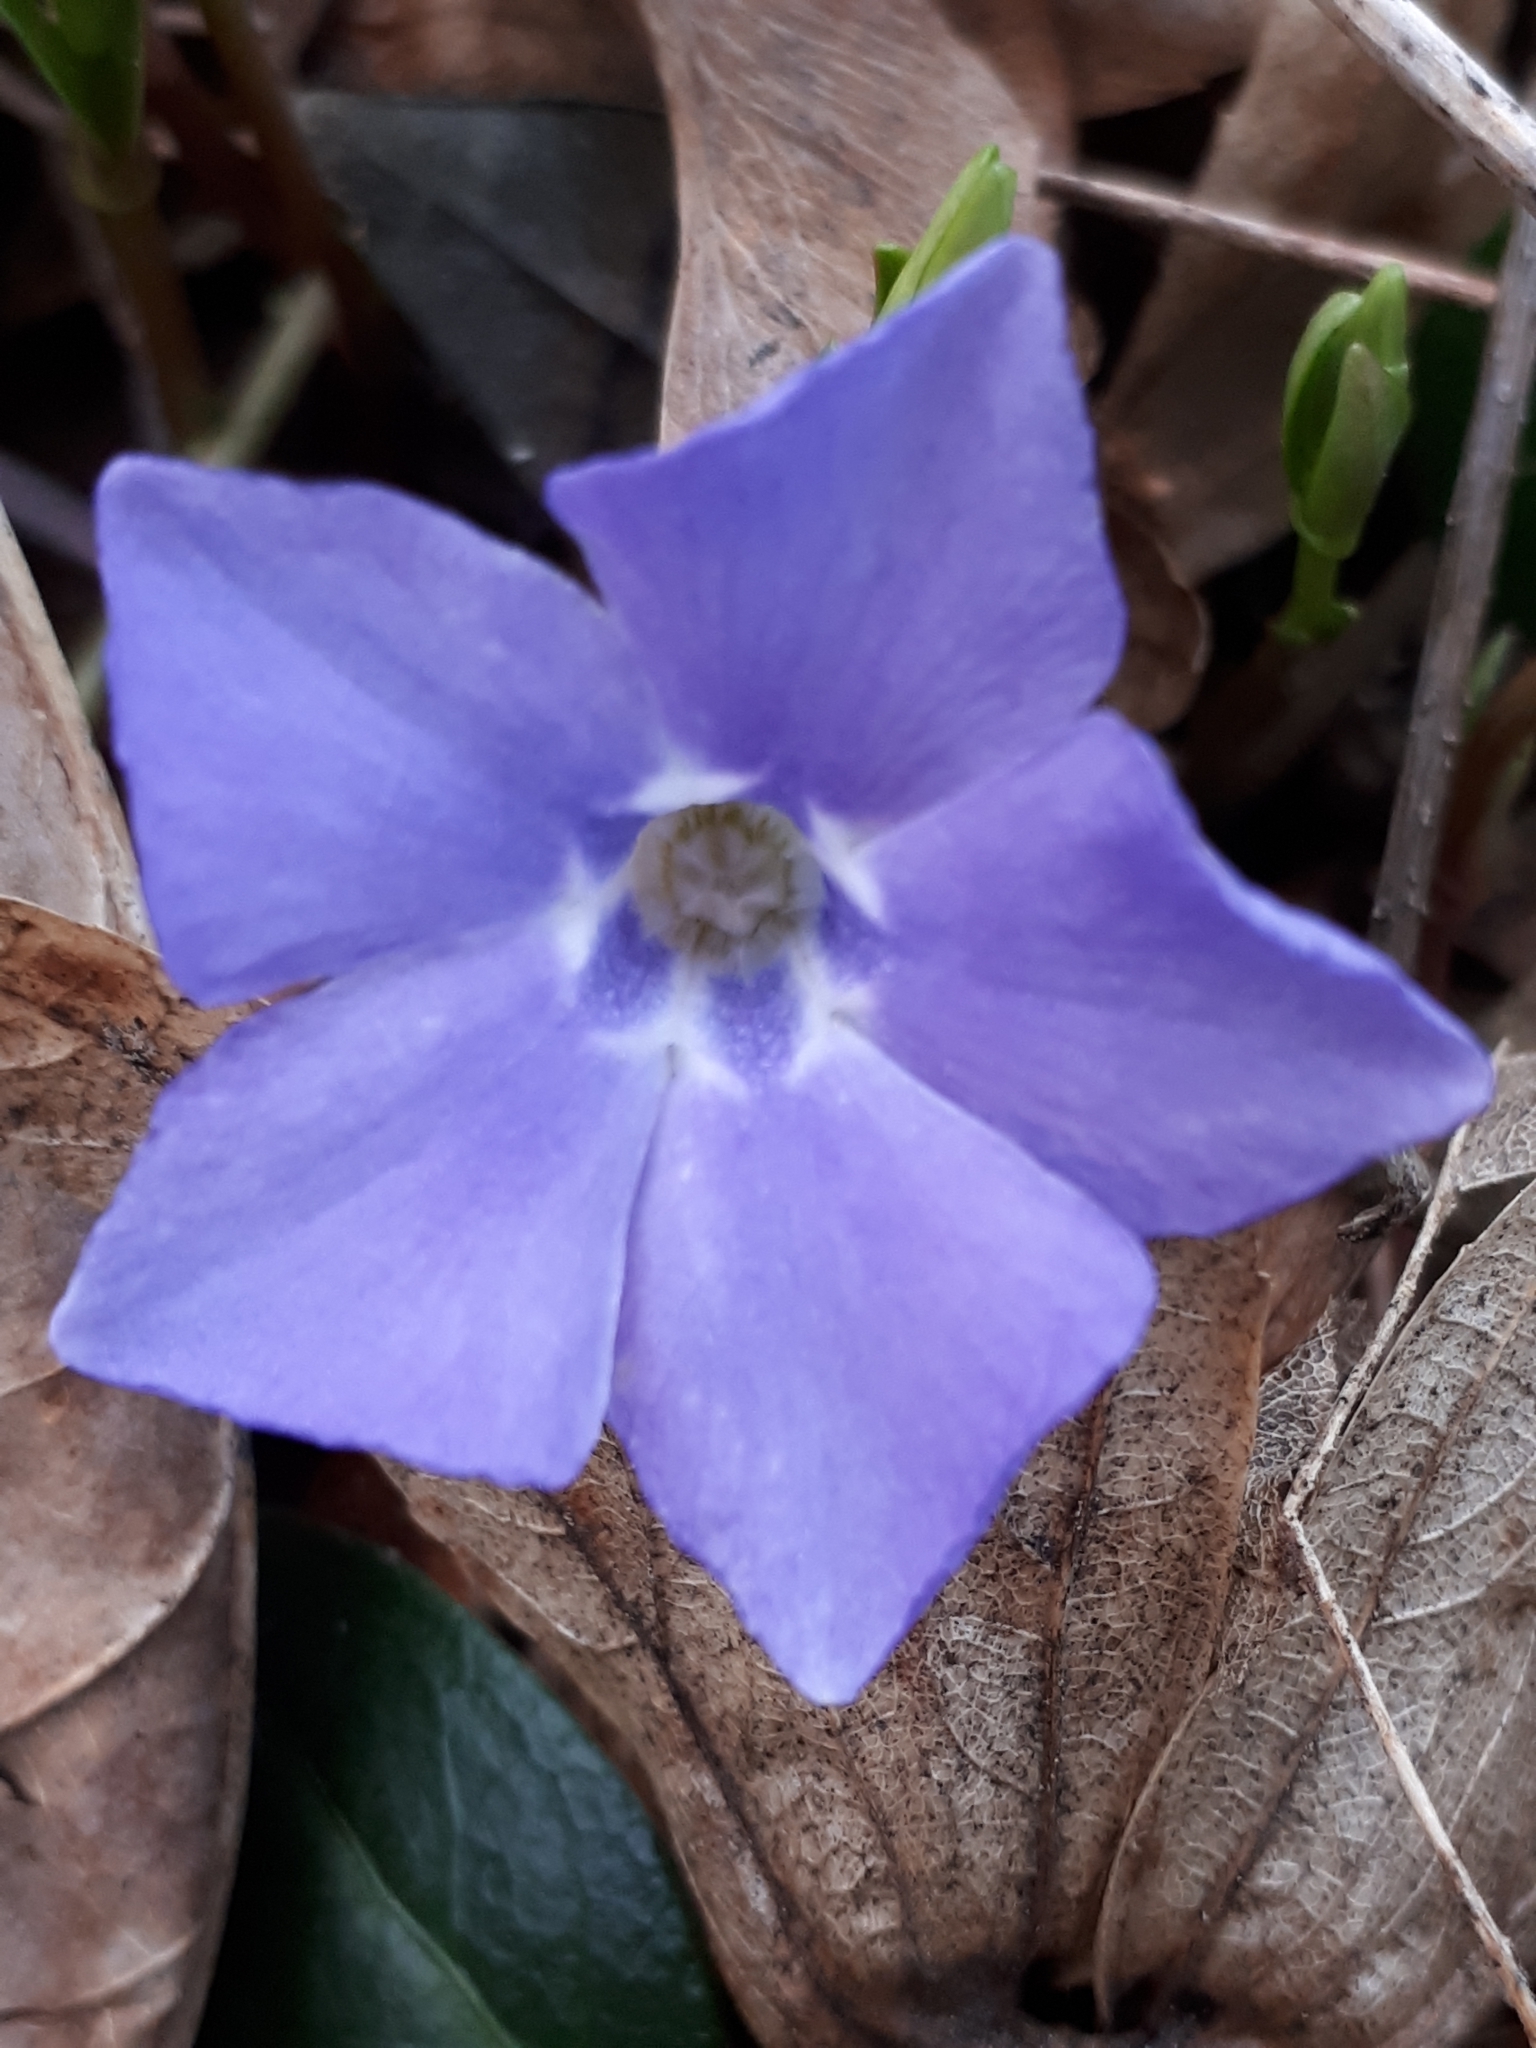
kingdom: Plantae
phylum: Tracheophyta
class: Magnoliopsida
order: Gentianales
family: Apocynaceae
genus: Vinca
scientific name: Vinca minor
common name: Lesser periwinkle
